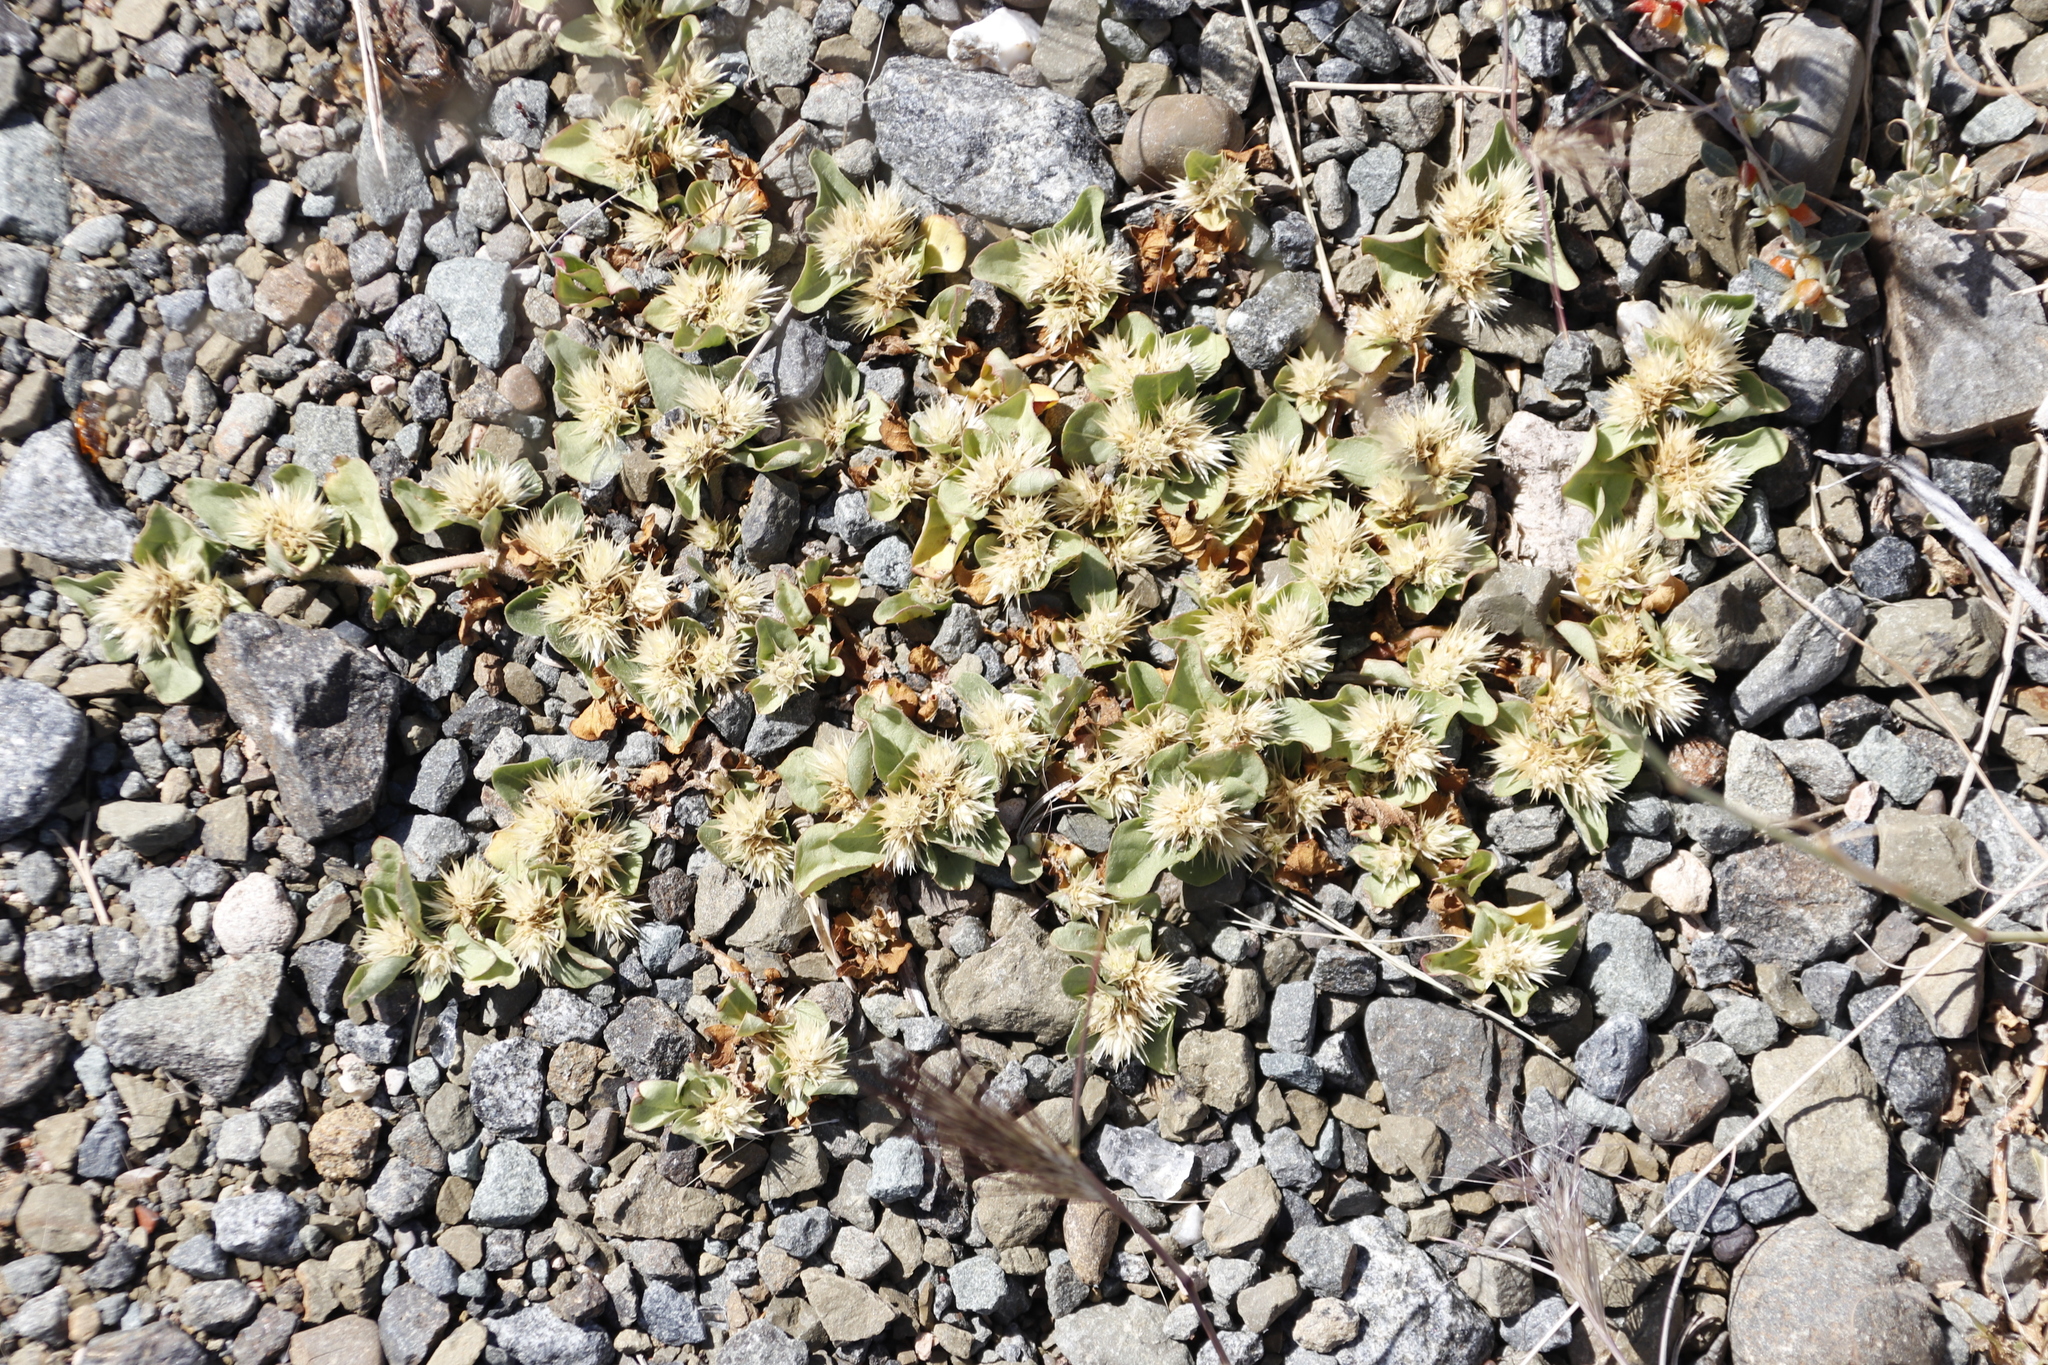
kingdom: Plantae
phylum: Tracheophyta
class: Magnoliopsida
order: Caryophyllales
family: Amaranthaceae
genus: Alternanthera
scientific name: Alternanthera pungens
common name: Khakiweed
